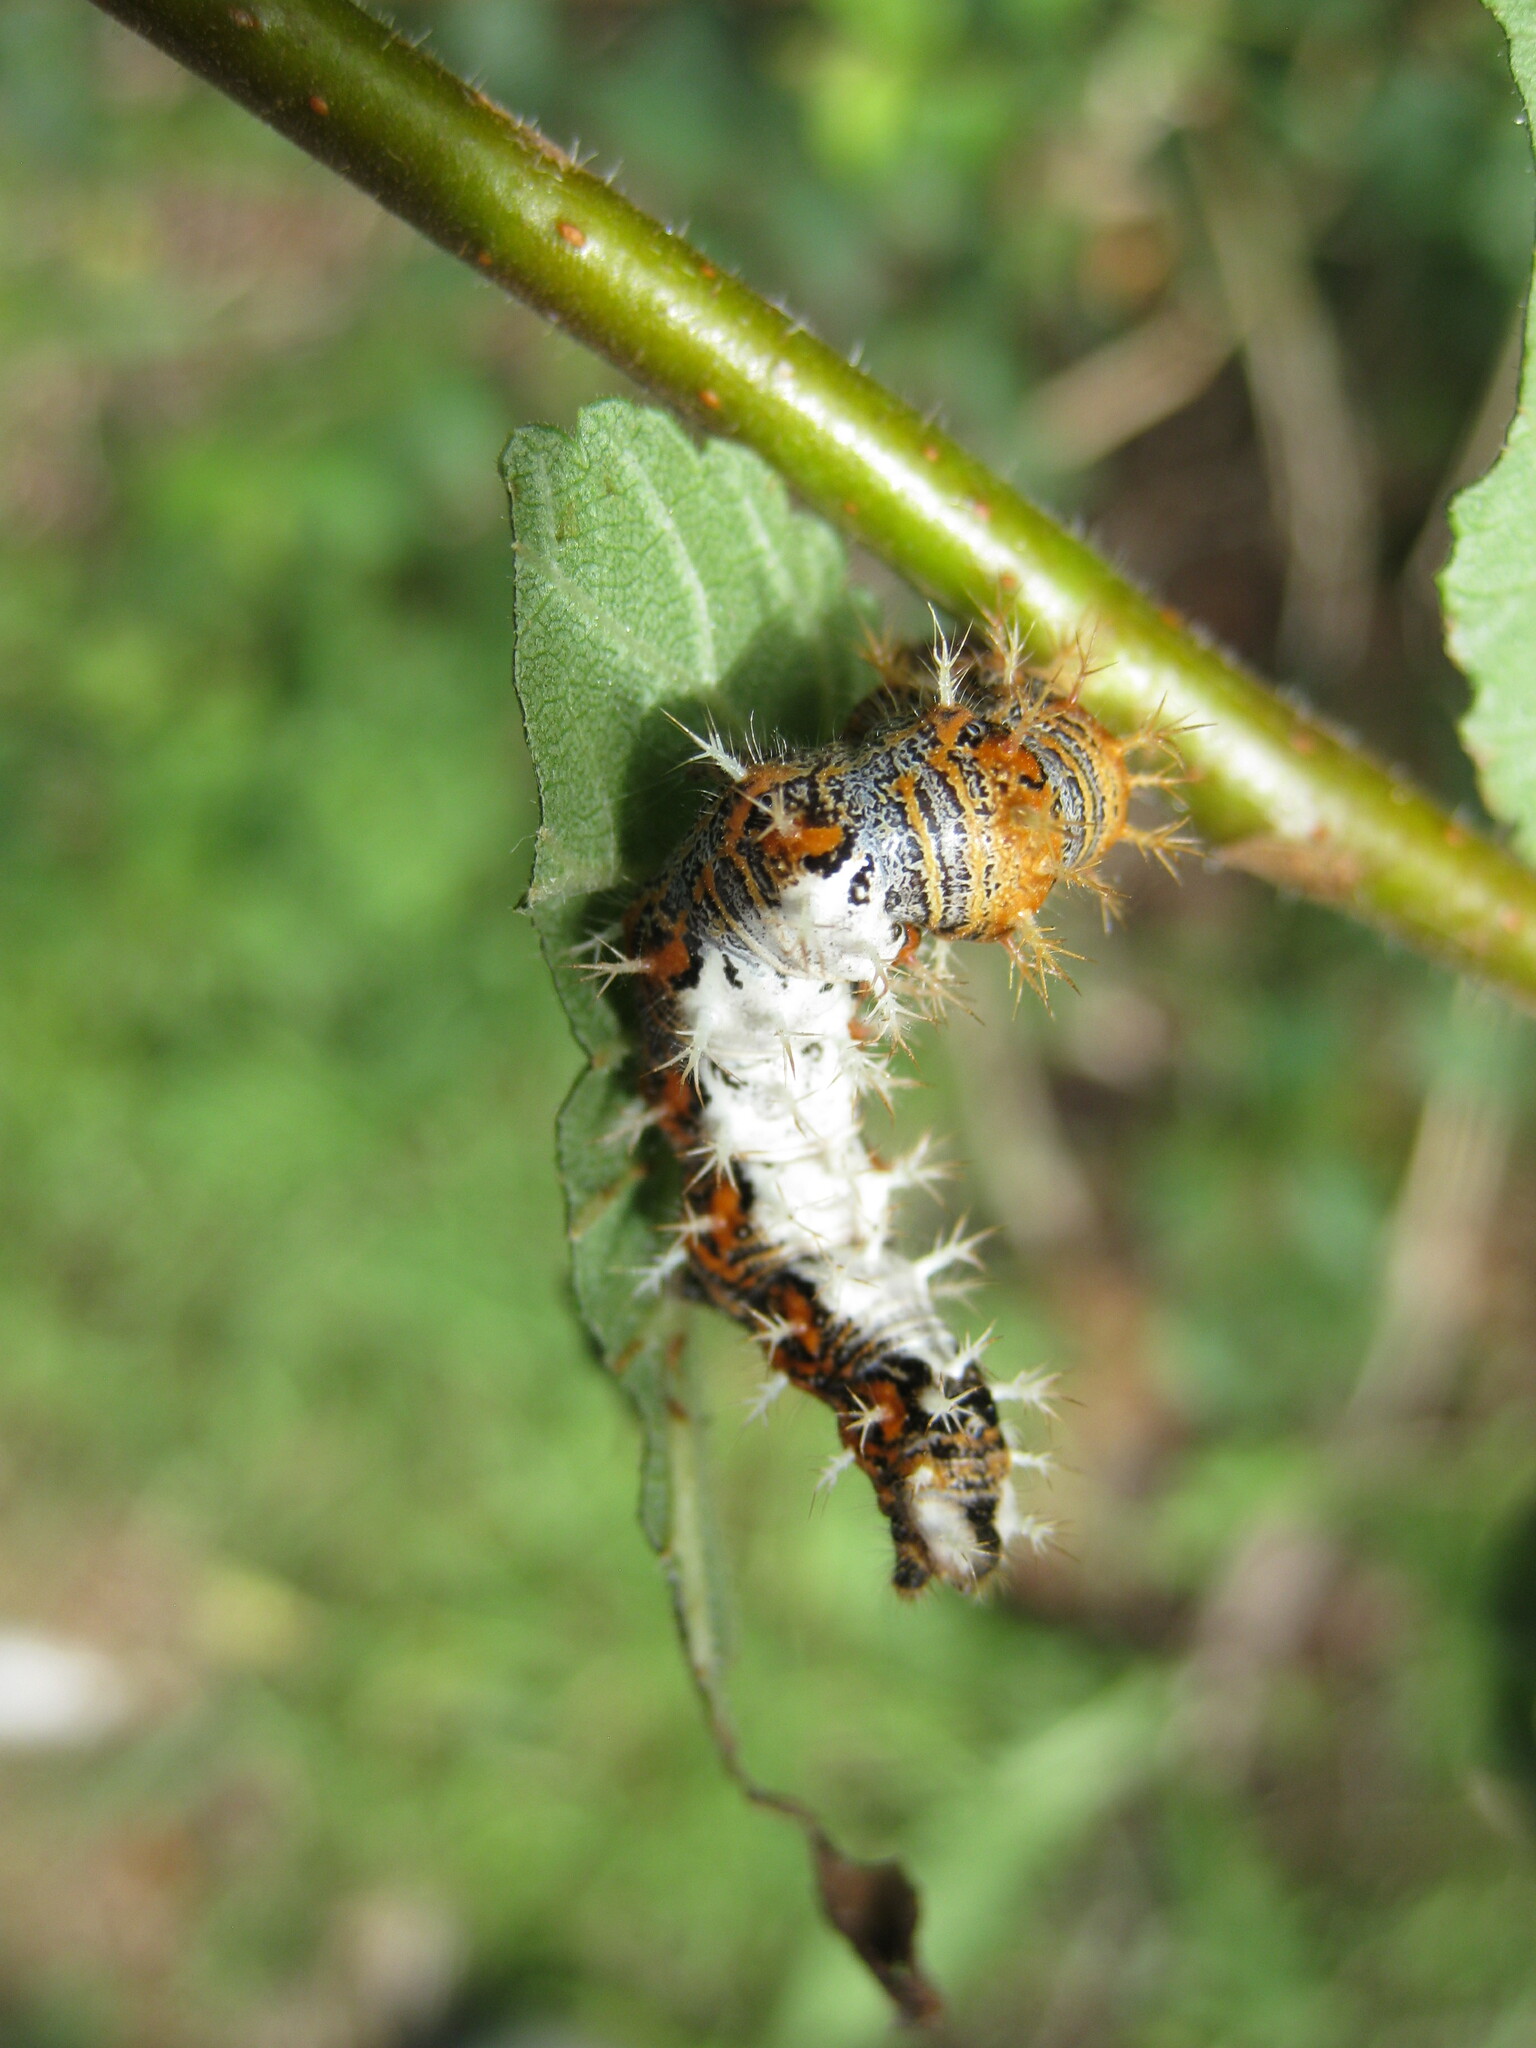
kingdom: Animalia
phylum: Arthropoda
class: Insecta
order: Lepidoptera
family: Nymphalidae
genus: Polygonia
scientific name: Polygonia c-album
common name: Comma
